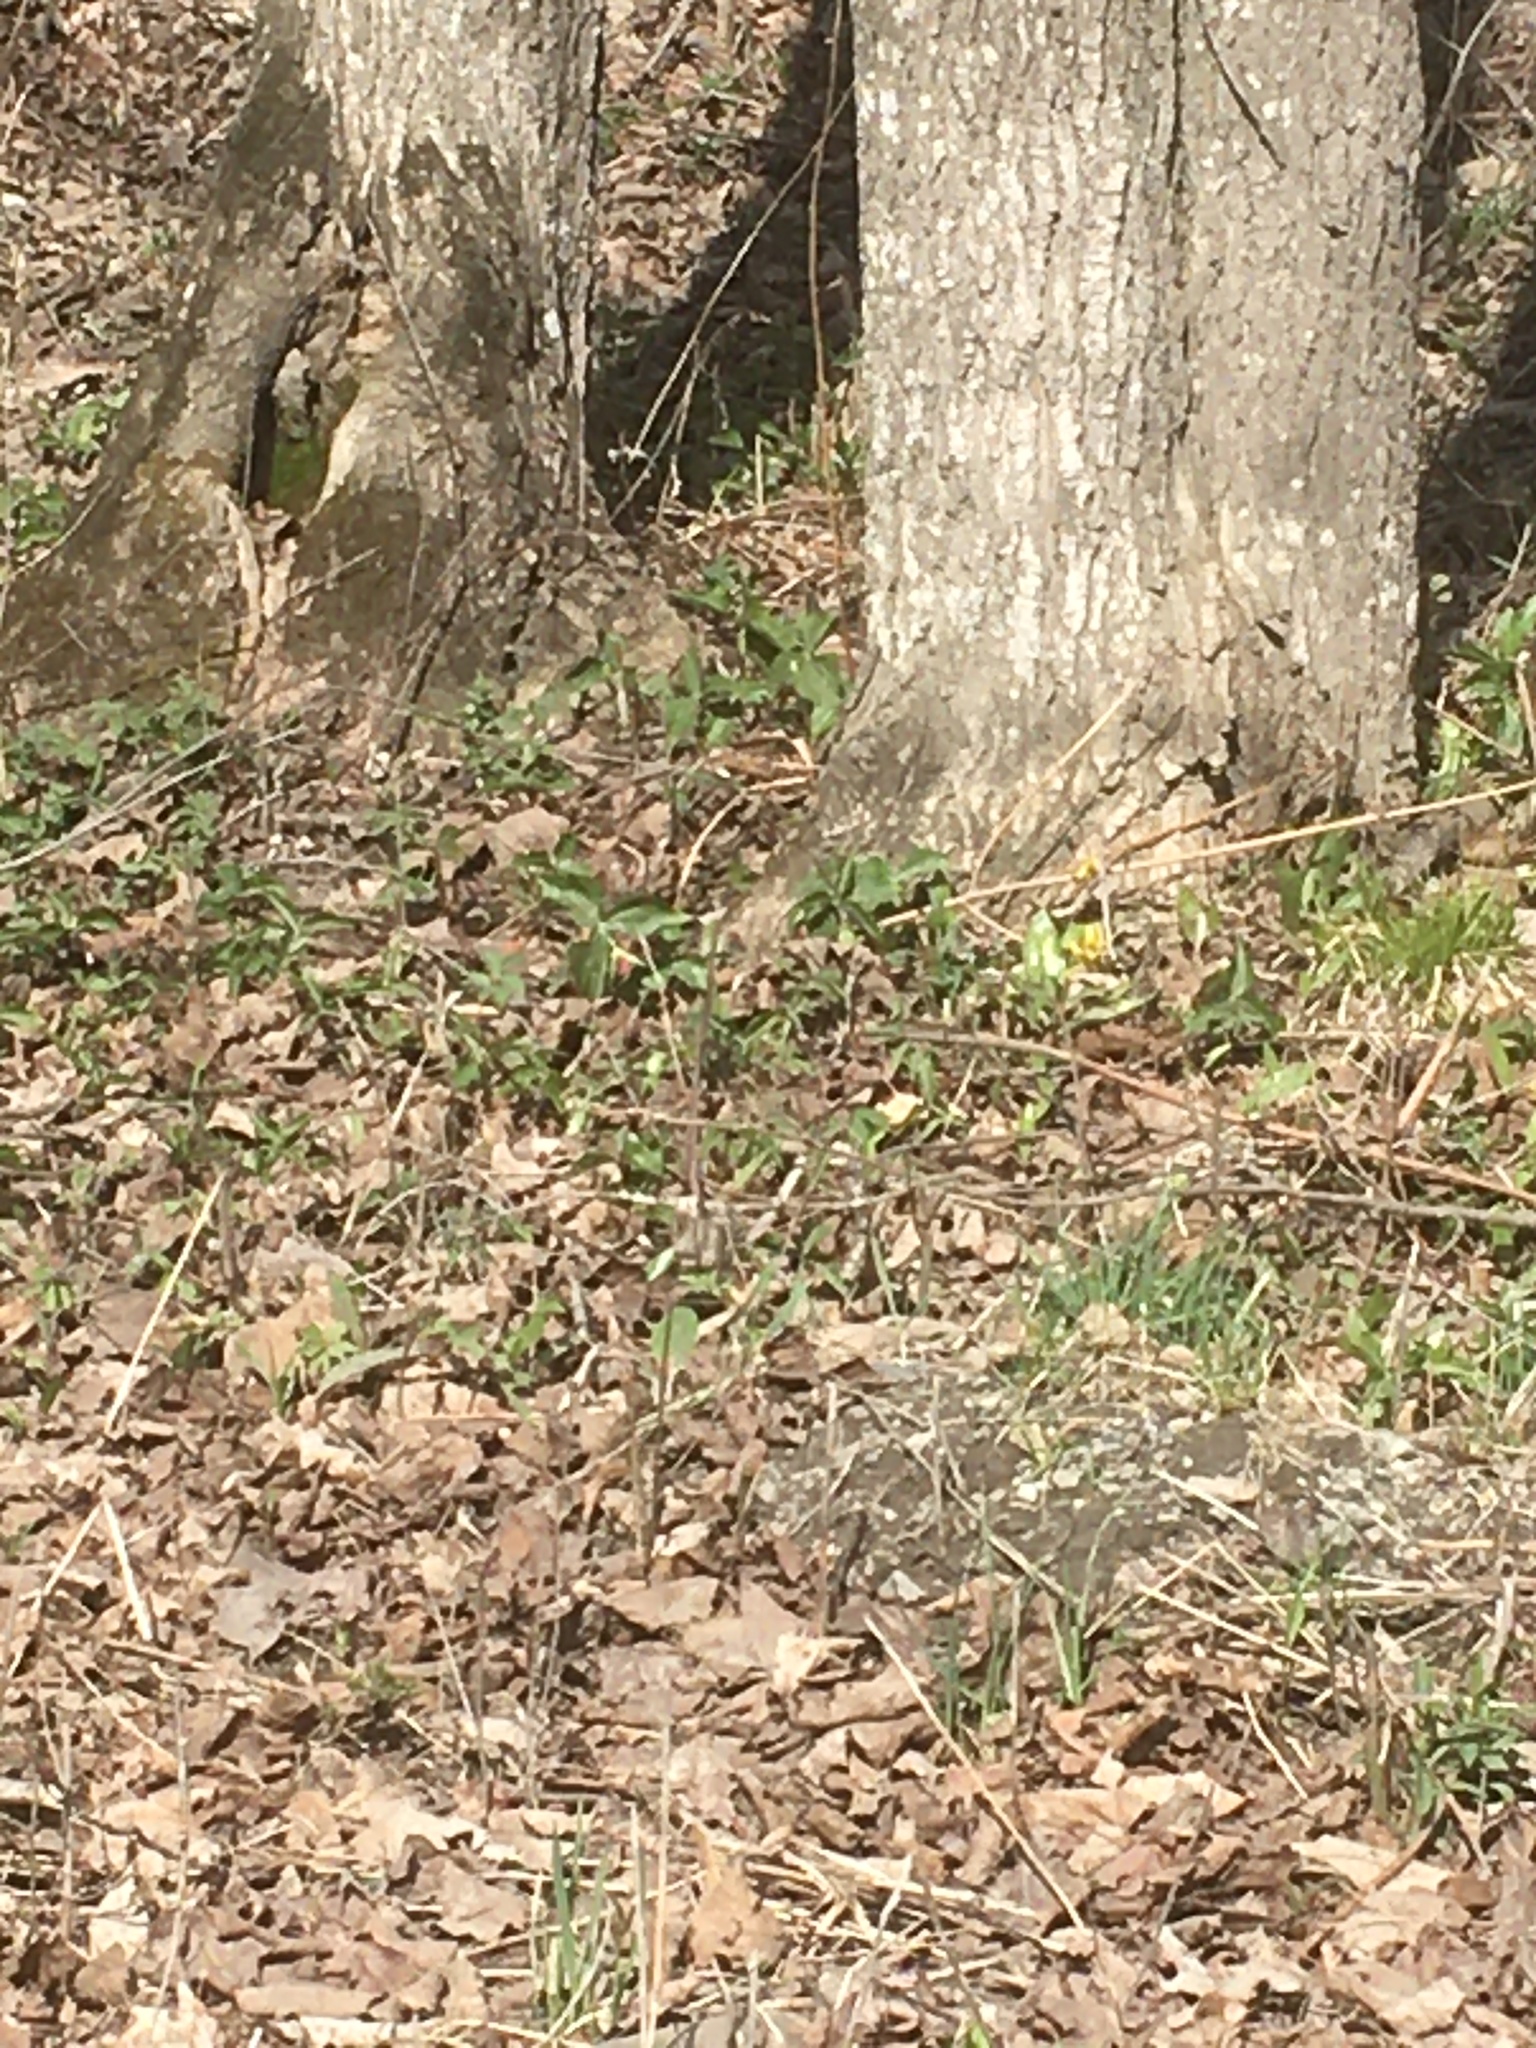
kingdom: Plantae
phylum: Tracheophyta
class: Liliopsida
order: Liliales
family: Melanthiaceae
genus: Trillium
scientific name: Trillium erectum
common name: Purple trillium
